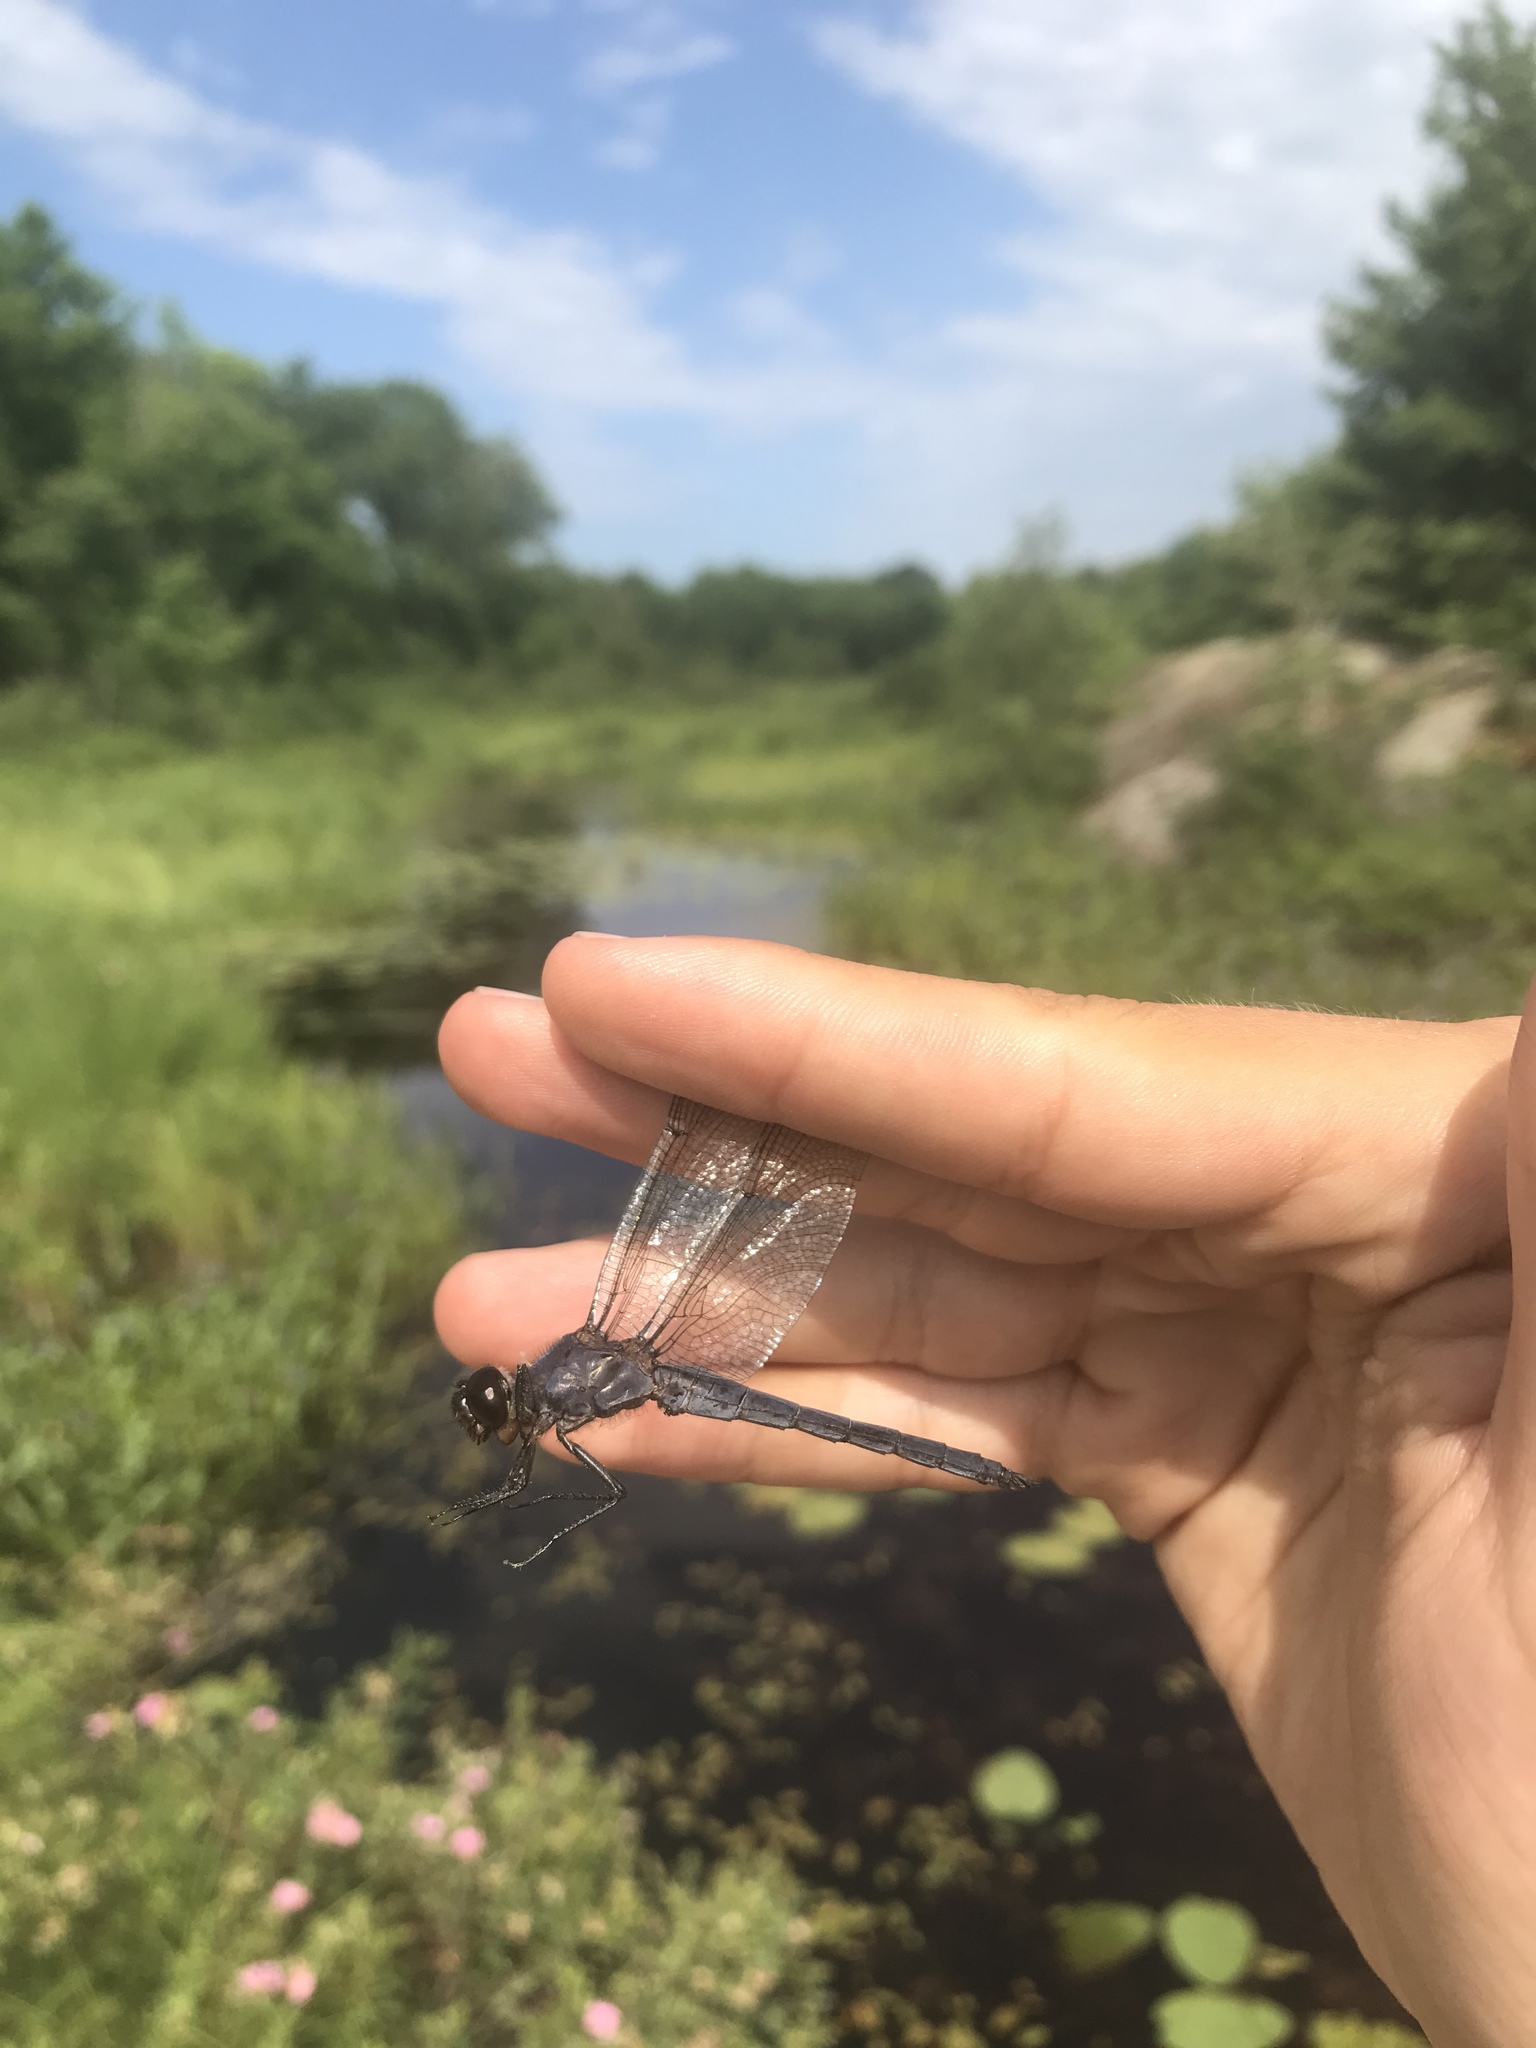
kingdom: Animalia
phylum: Arthropoda
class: Insecta
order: Odonata
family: Libellulidae
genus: Libellula
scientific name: Libellula incesta
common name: Slaty skimmer
